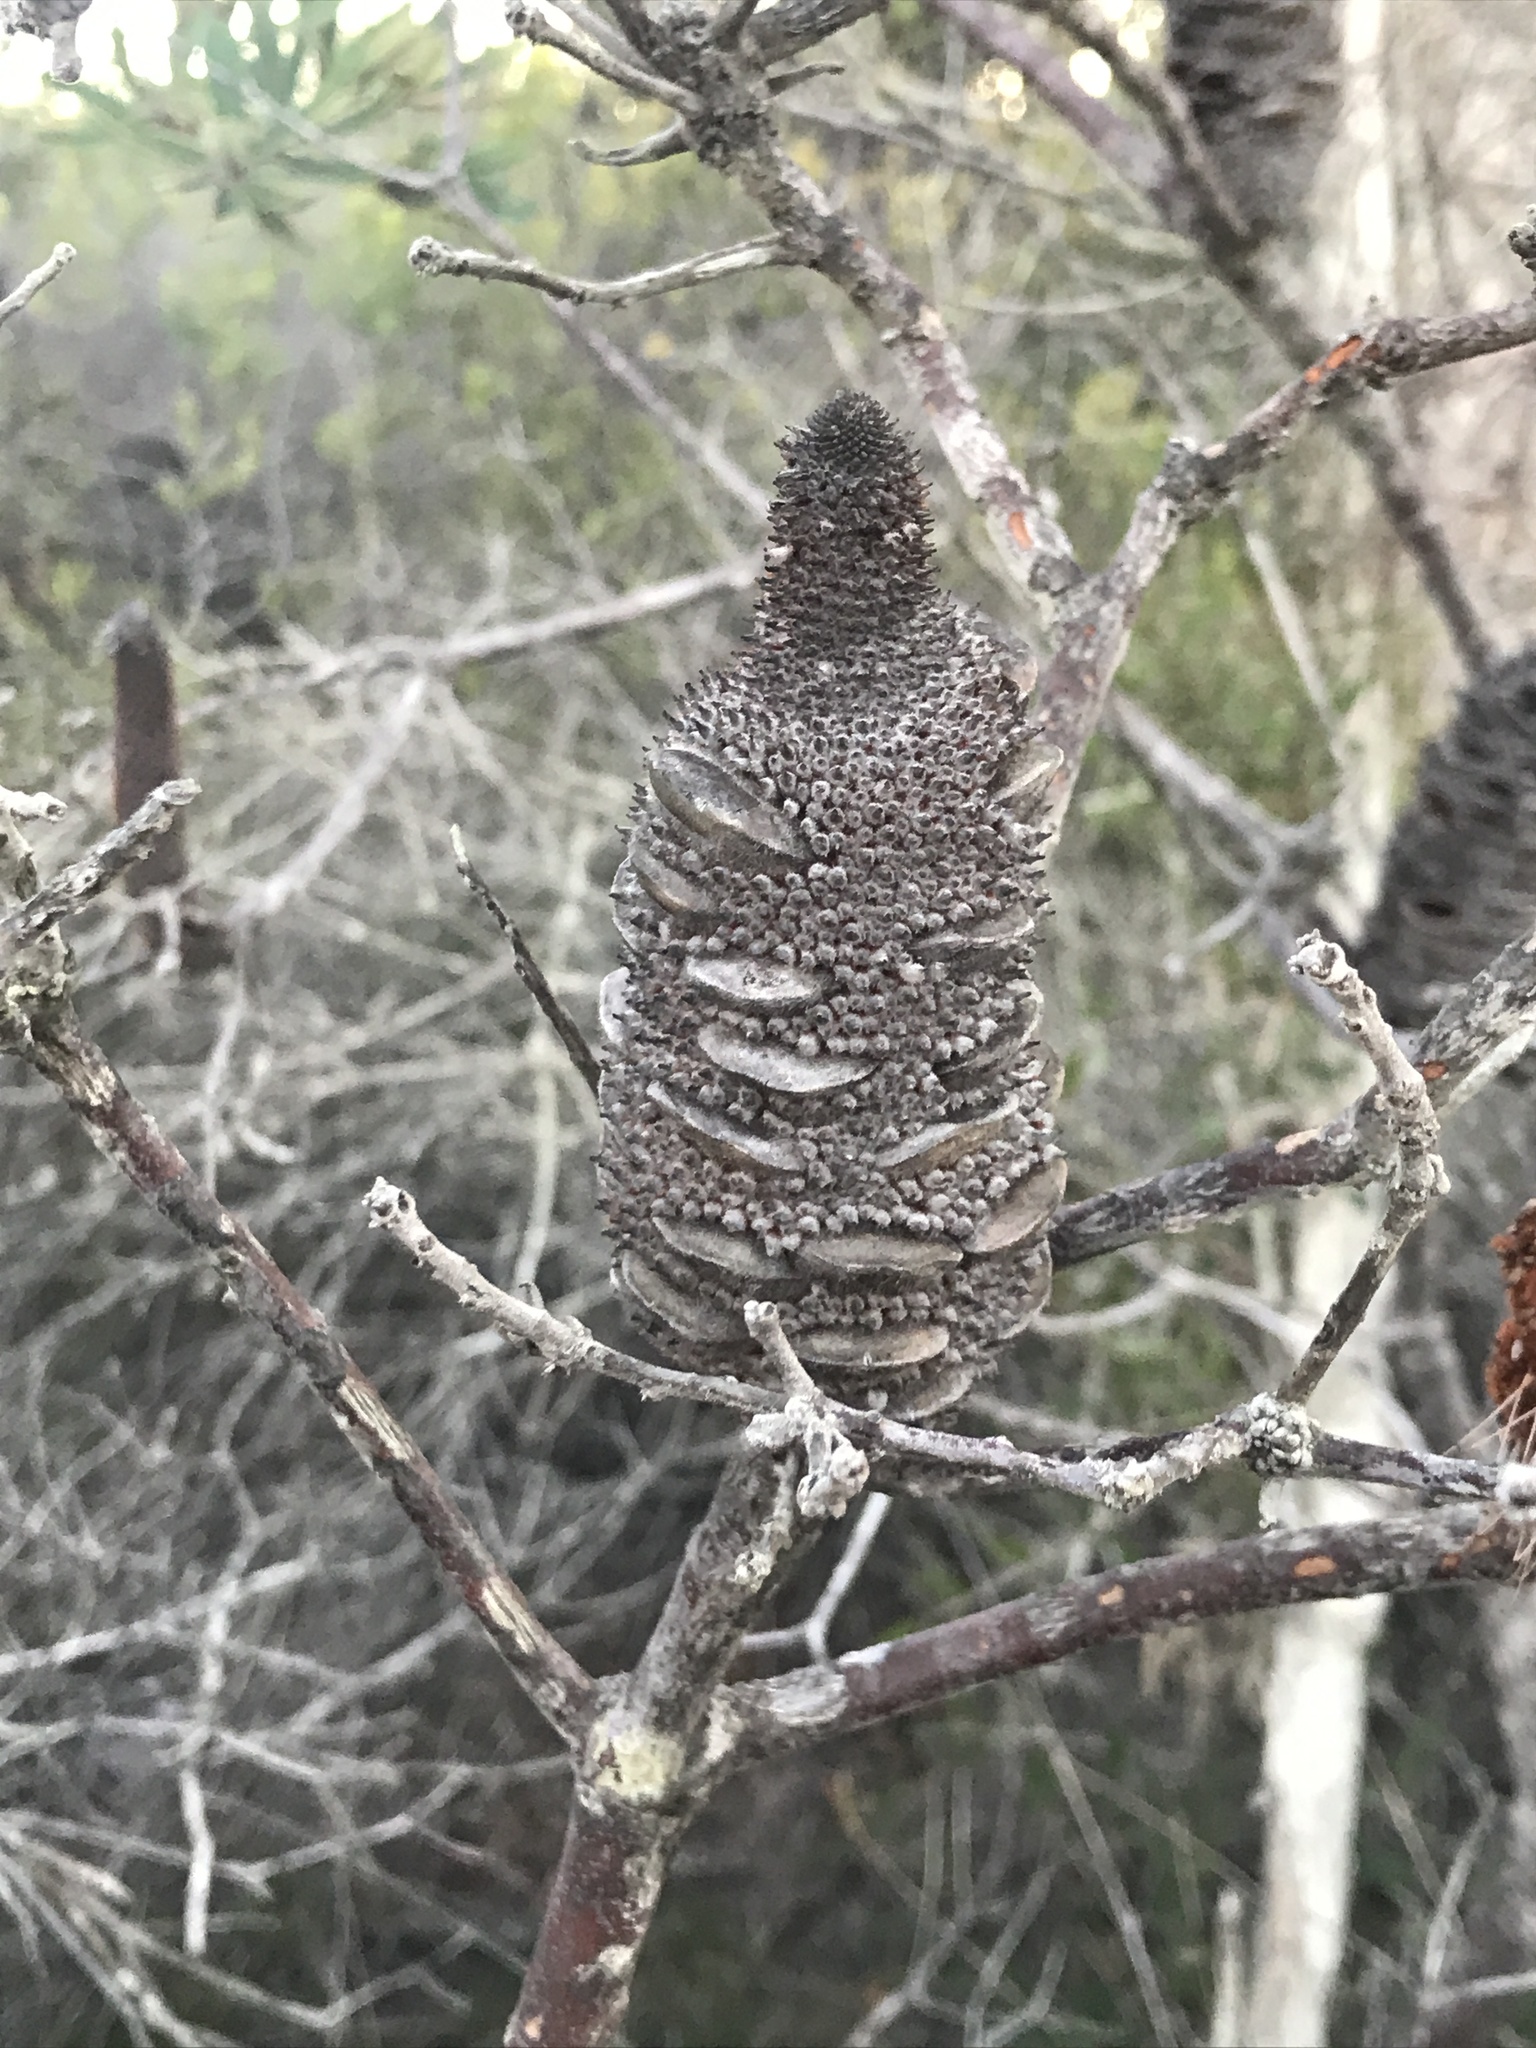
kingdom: Plantae
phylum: Tracheophyta
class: Magnoliopsida
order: Proteales
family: Proteaceae
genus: Banksia
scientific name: Banksia oblongifolia
